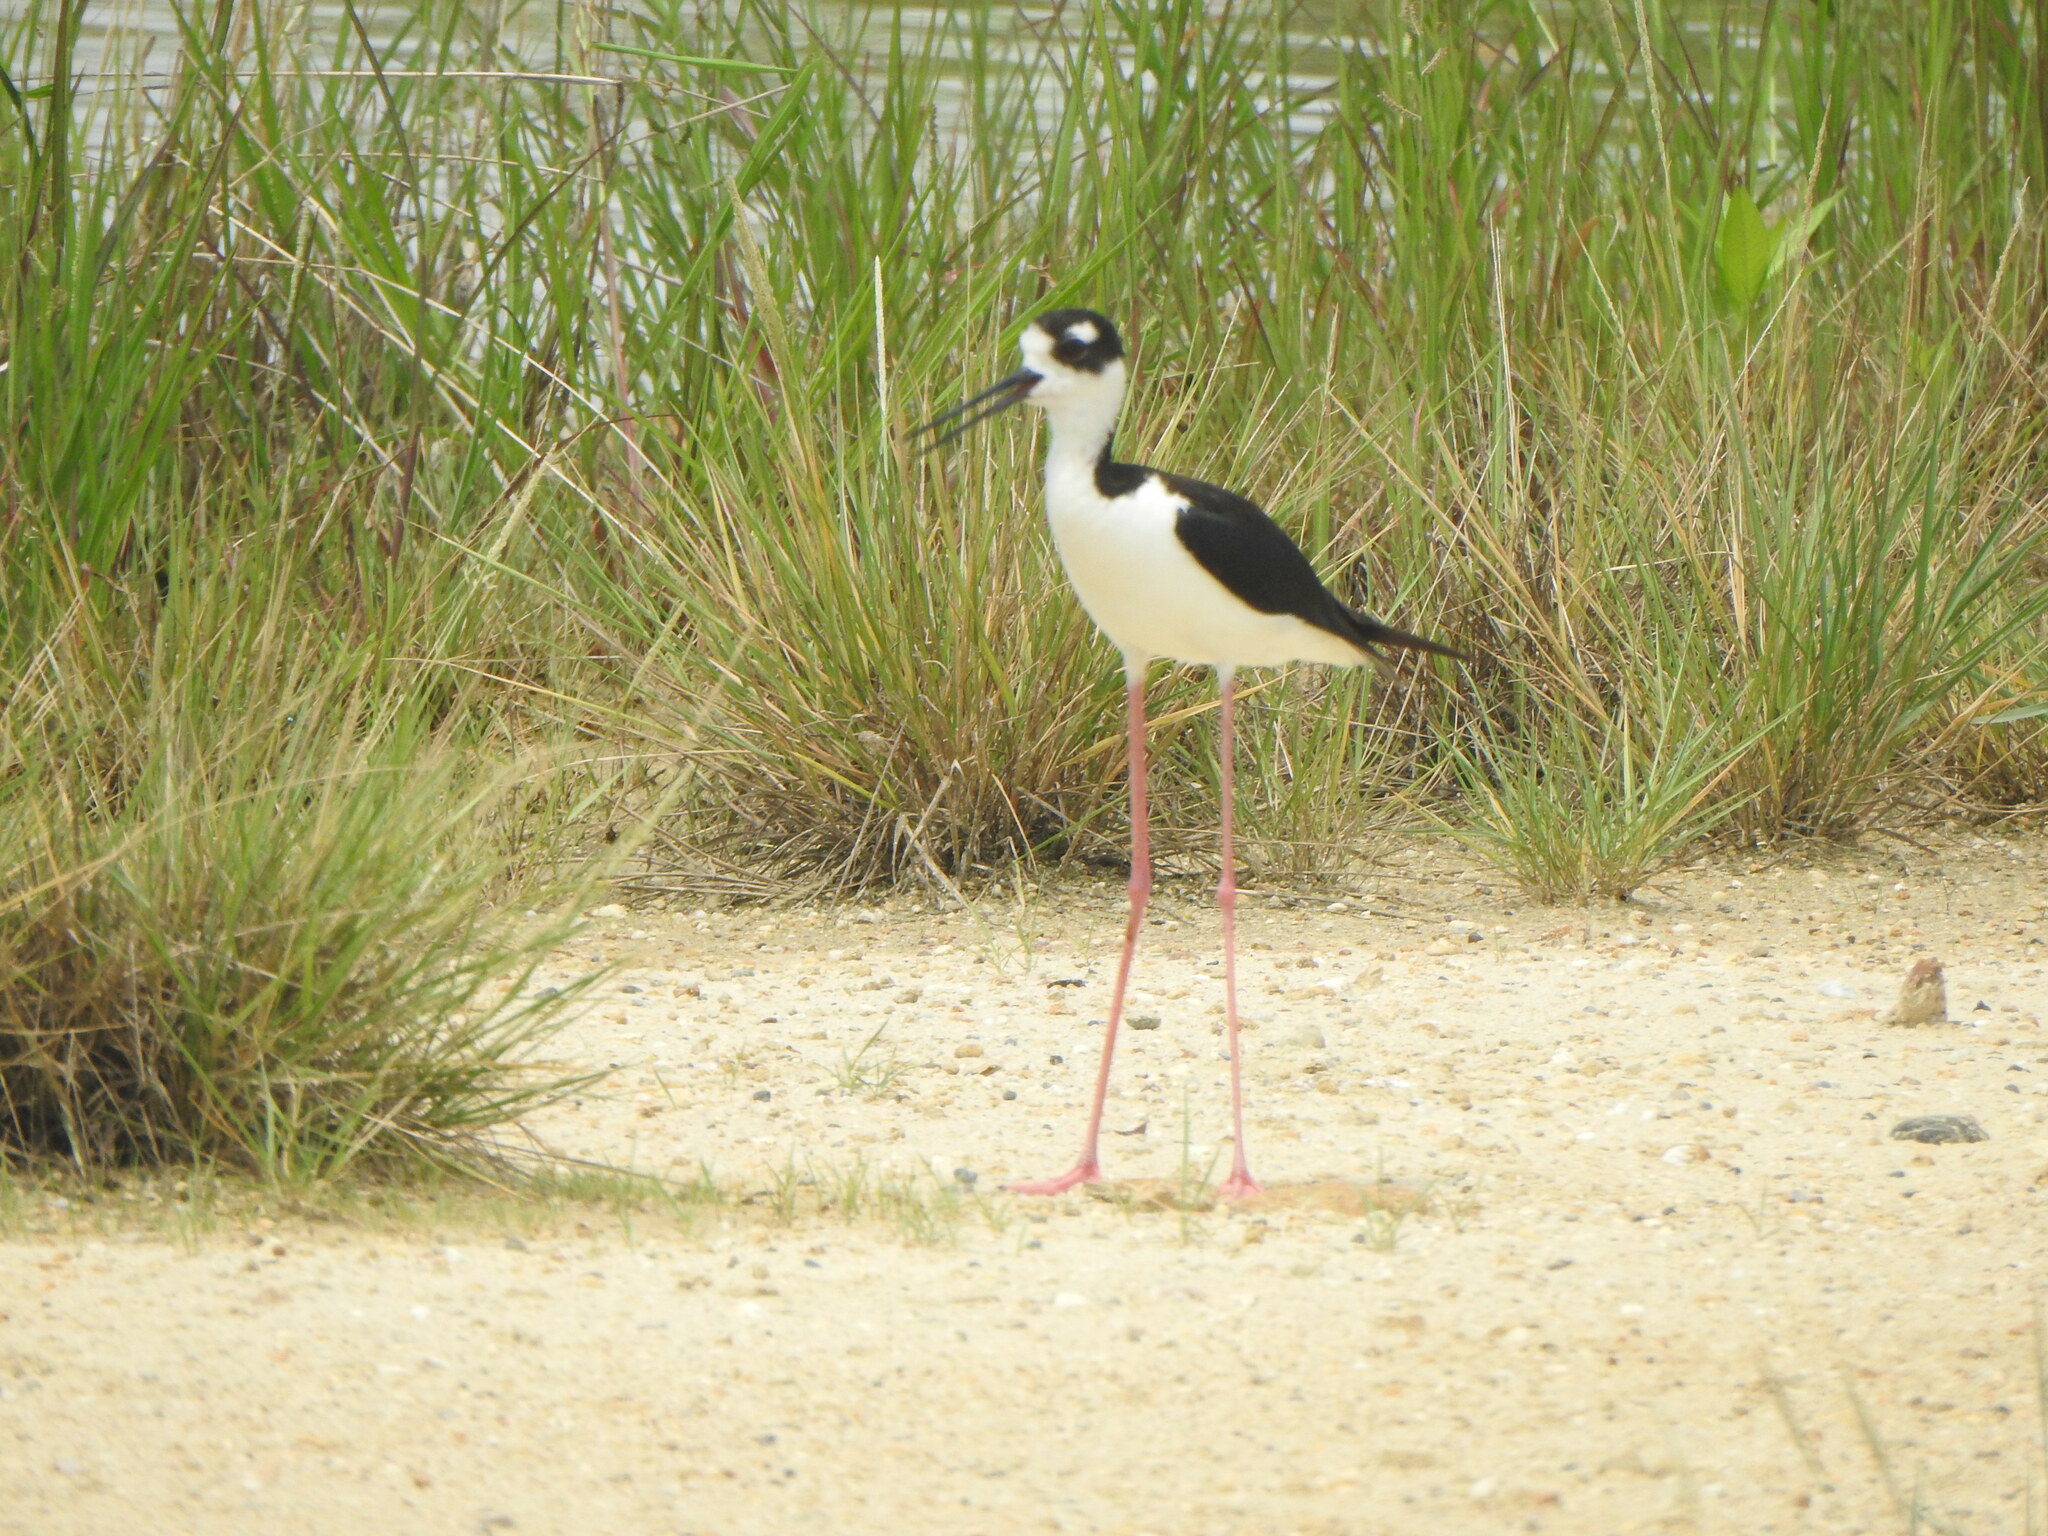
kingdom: Animalia
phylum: Chordata
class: Aves
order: Charadriiformes
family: Recurvirostridae
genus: Himantopus
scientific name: Himantopus mexicanus
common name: Black-necked stilt
